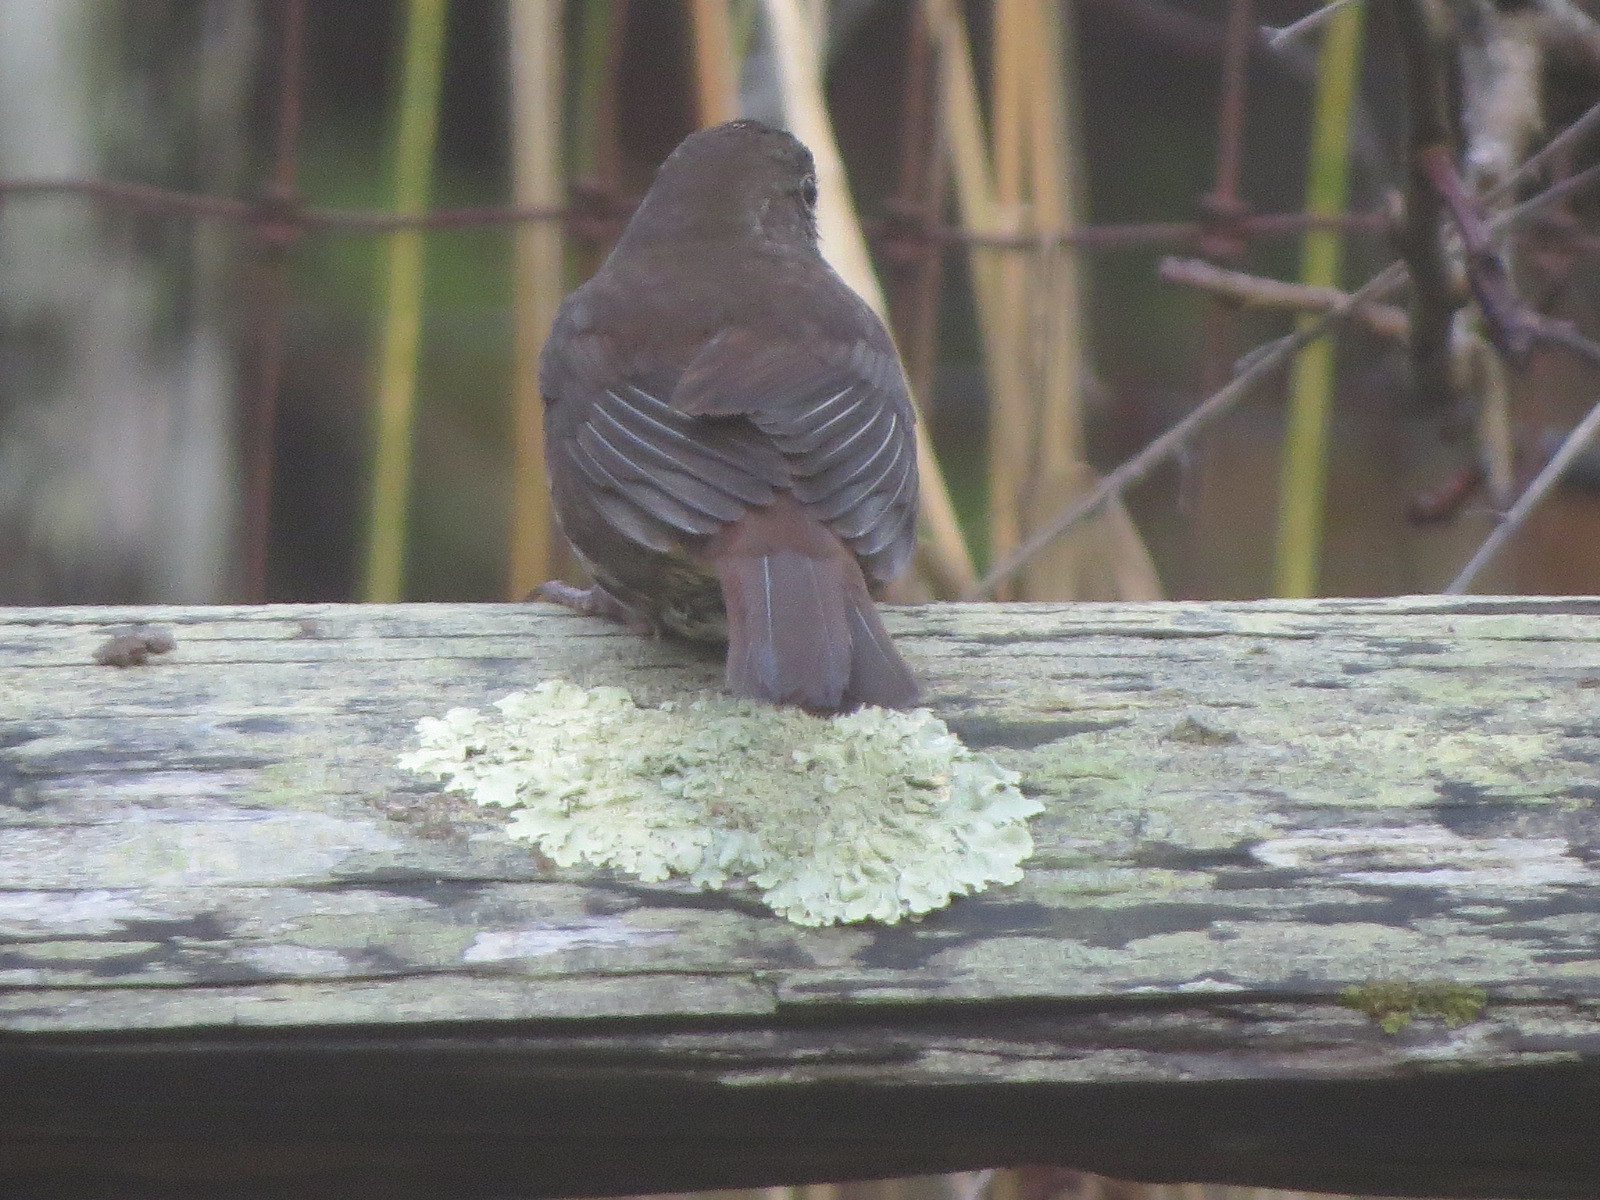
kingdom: Animalia
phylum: Chordata
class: Aves
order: Passeriformes
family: Passerellidae
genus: Passerella
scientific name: Passerella iliaca
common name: Fox sparrow
